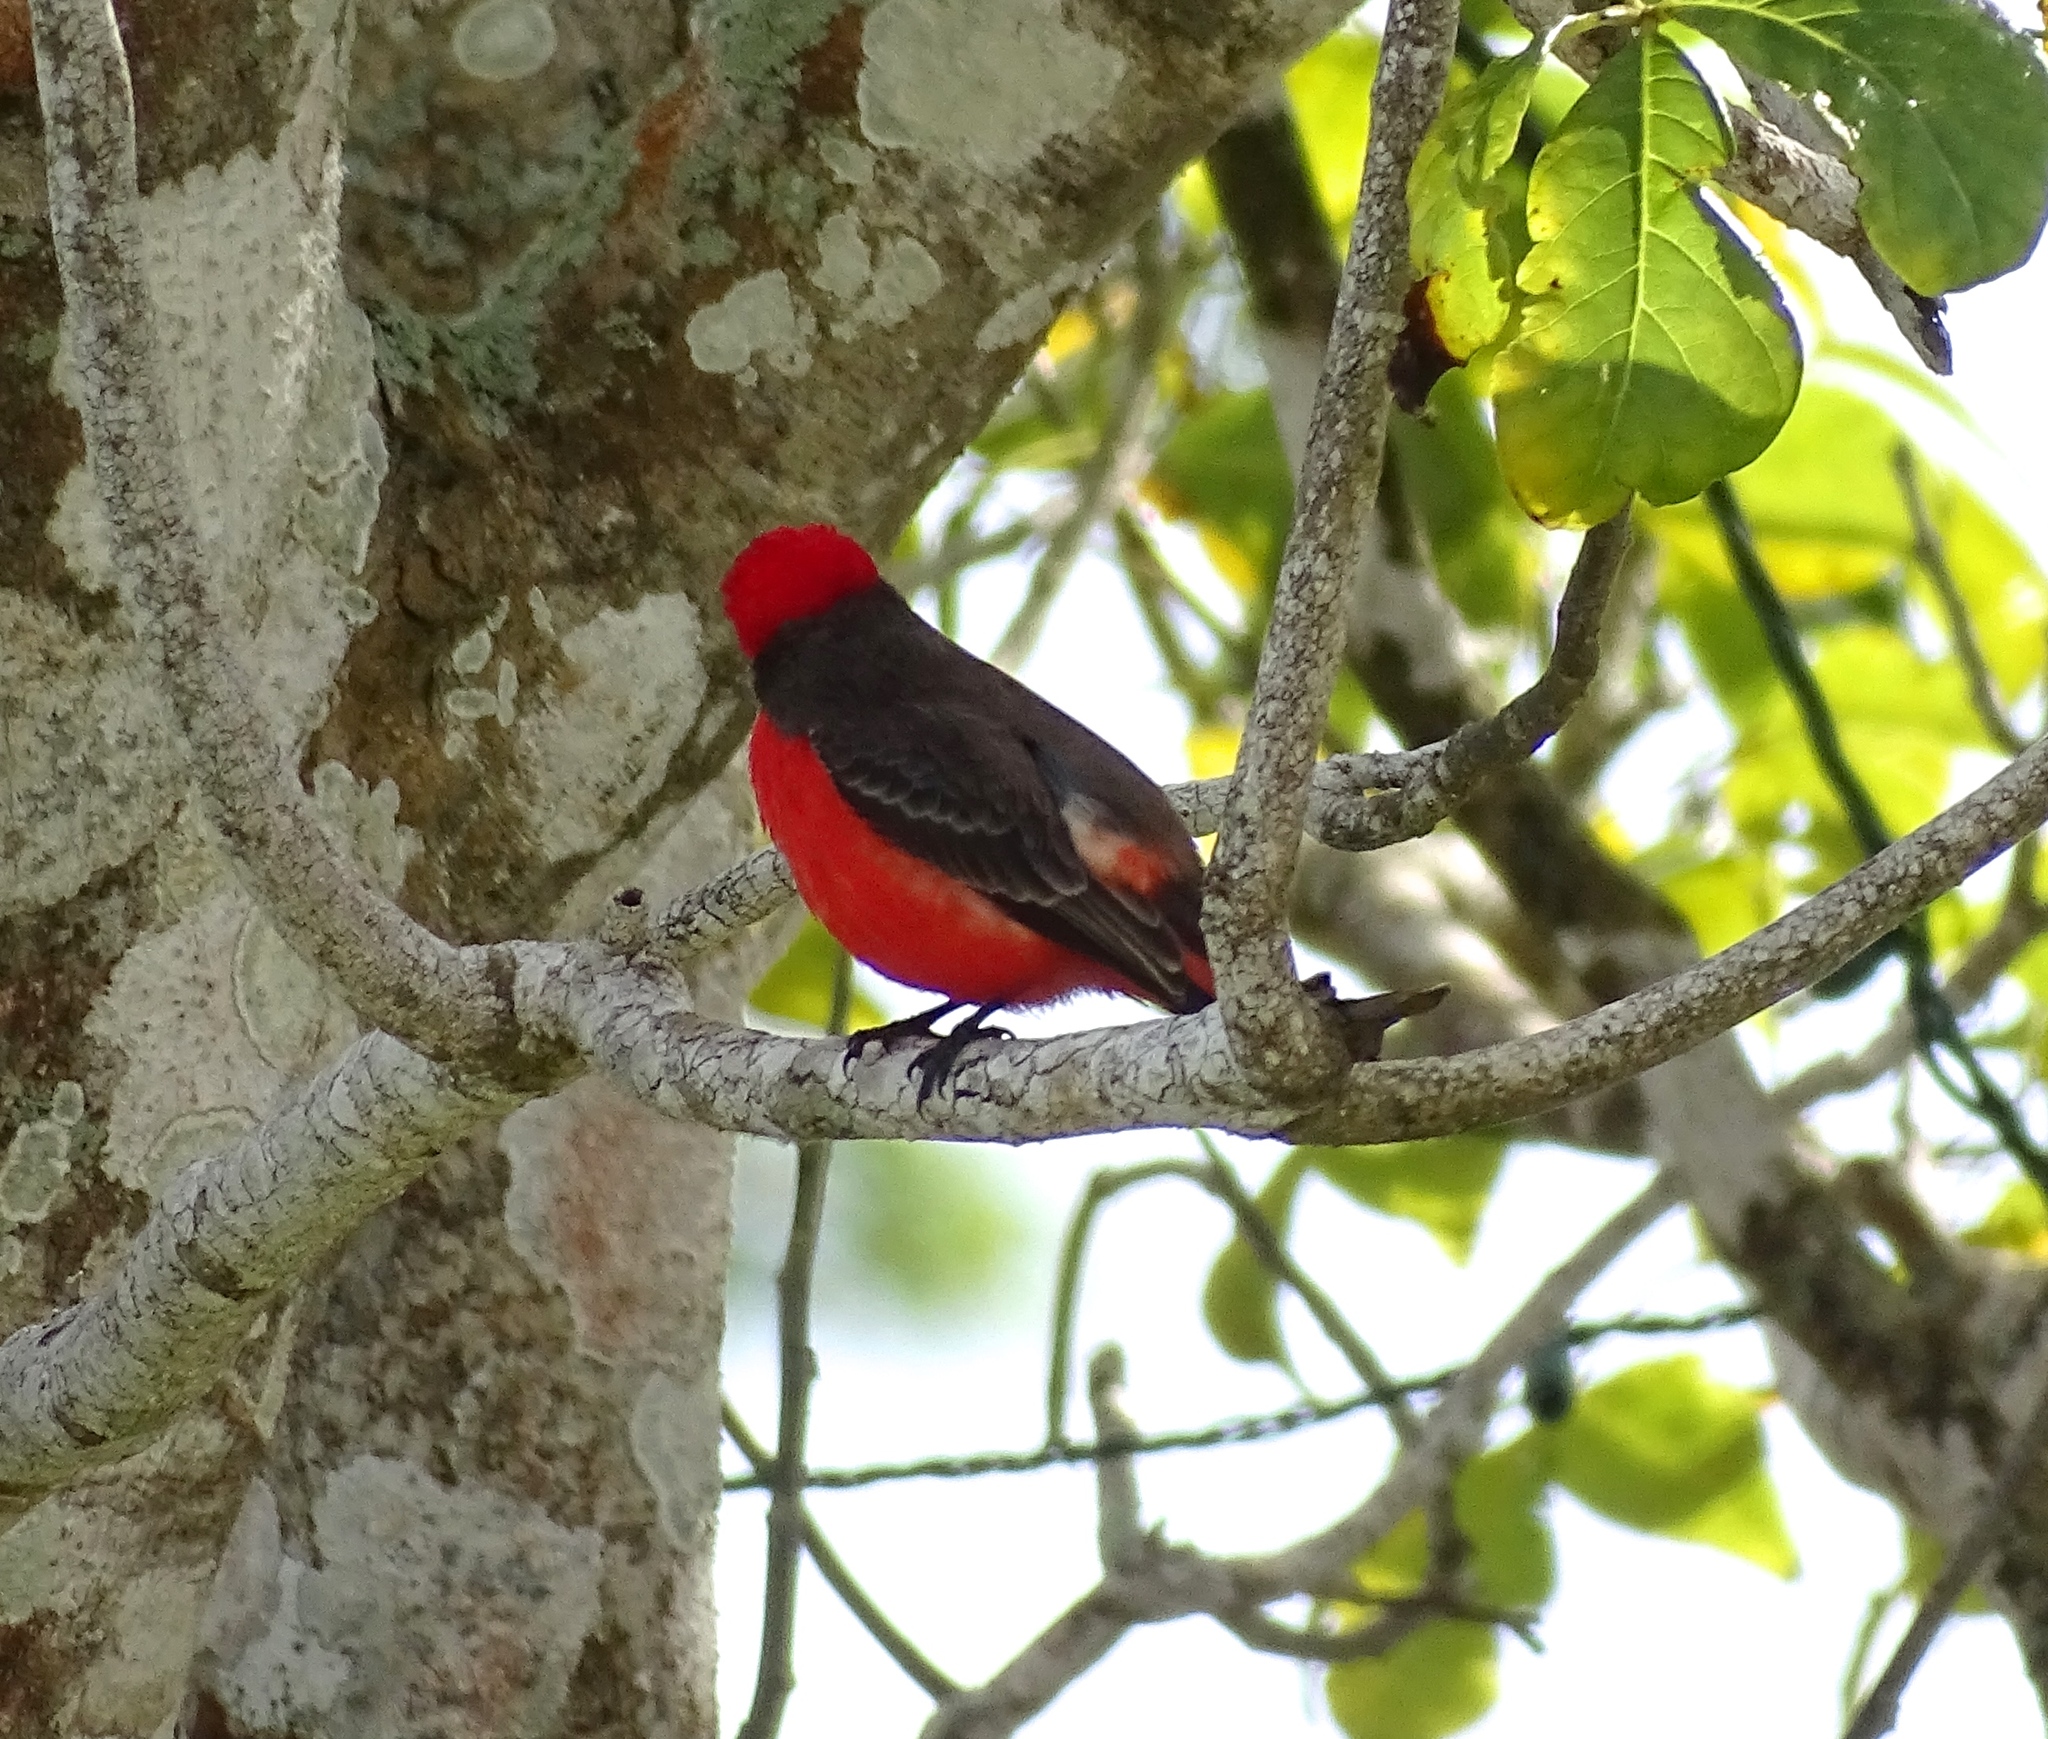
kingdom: Animalia
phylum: Chordata
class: Aves
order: Passeriformes
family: Tyrannidae
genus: Pyrocephalus
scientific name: Pyrocephalus rubinus
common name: Vermilion flycatcher
